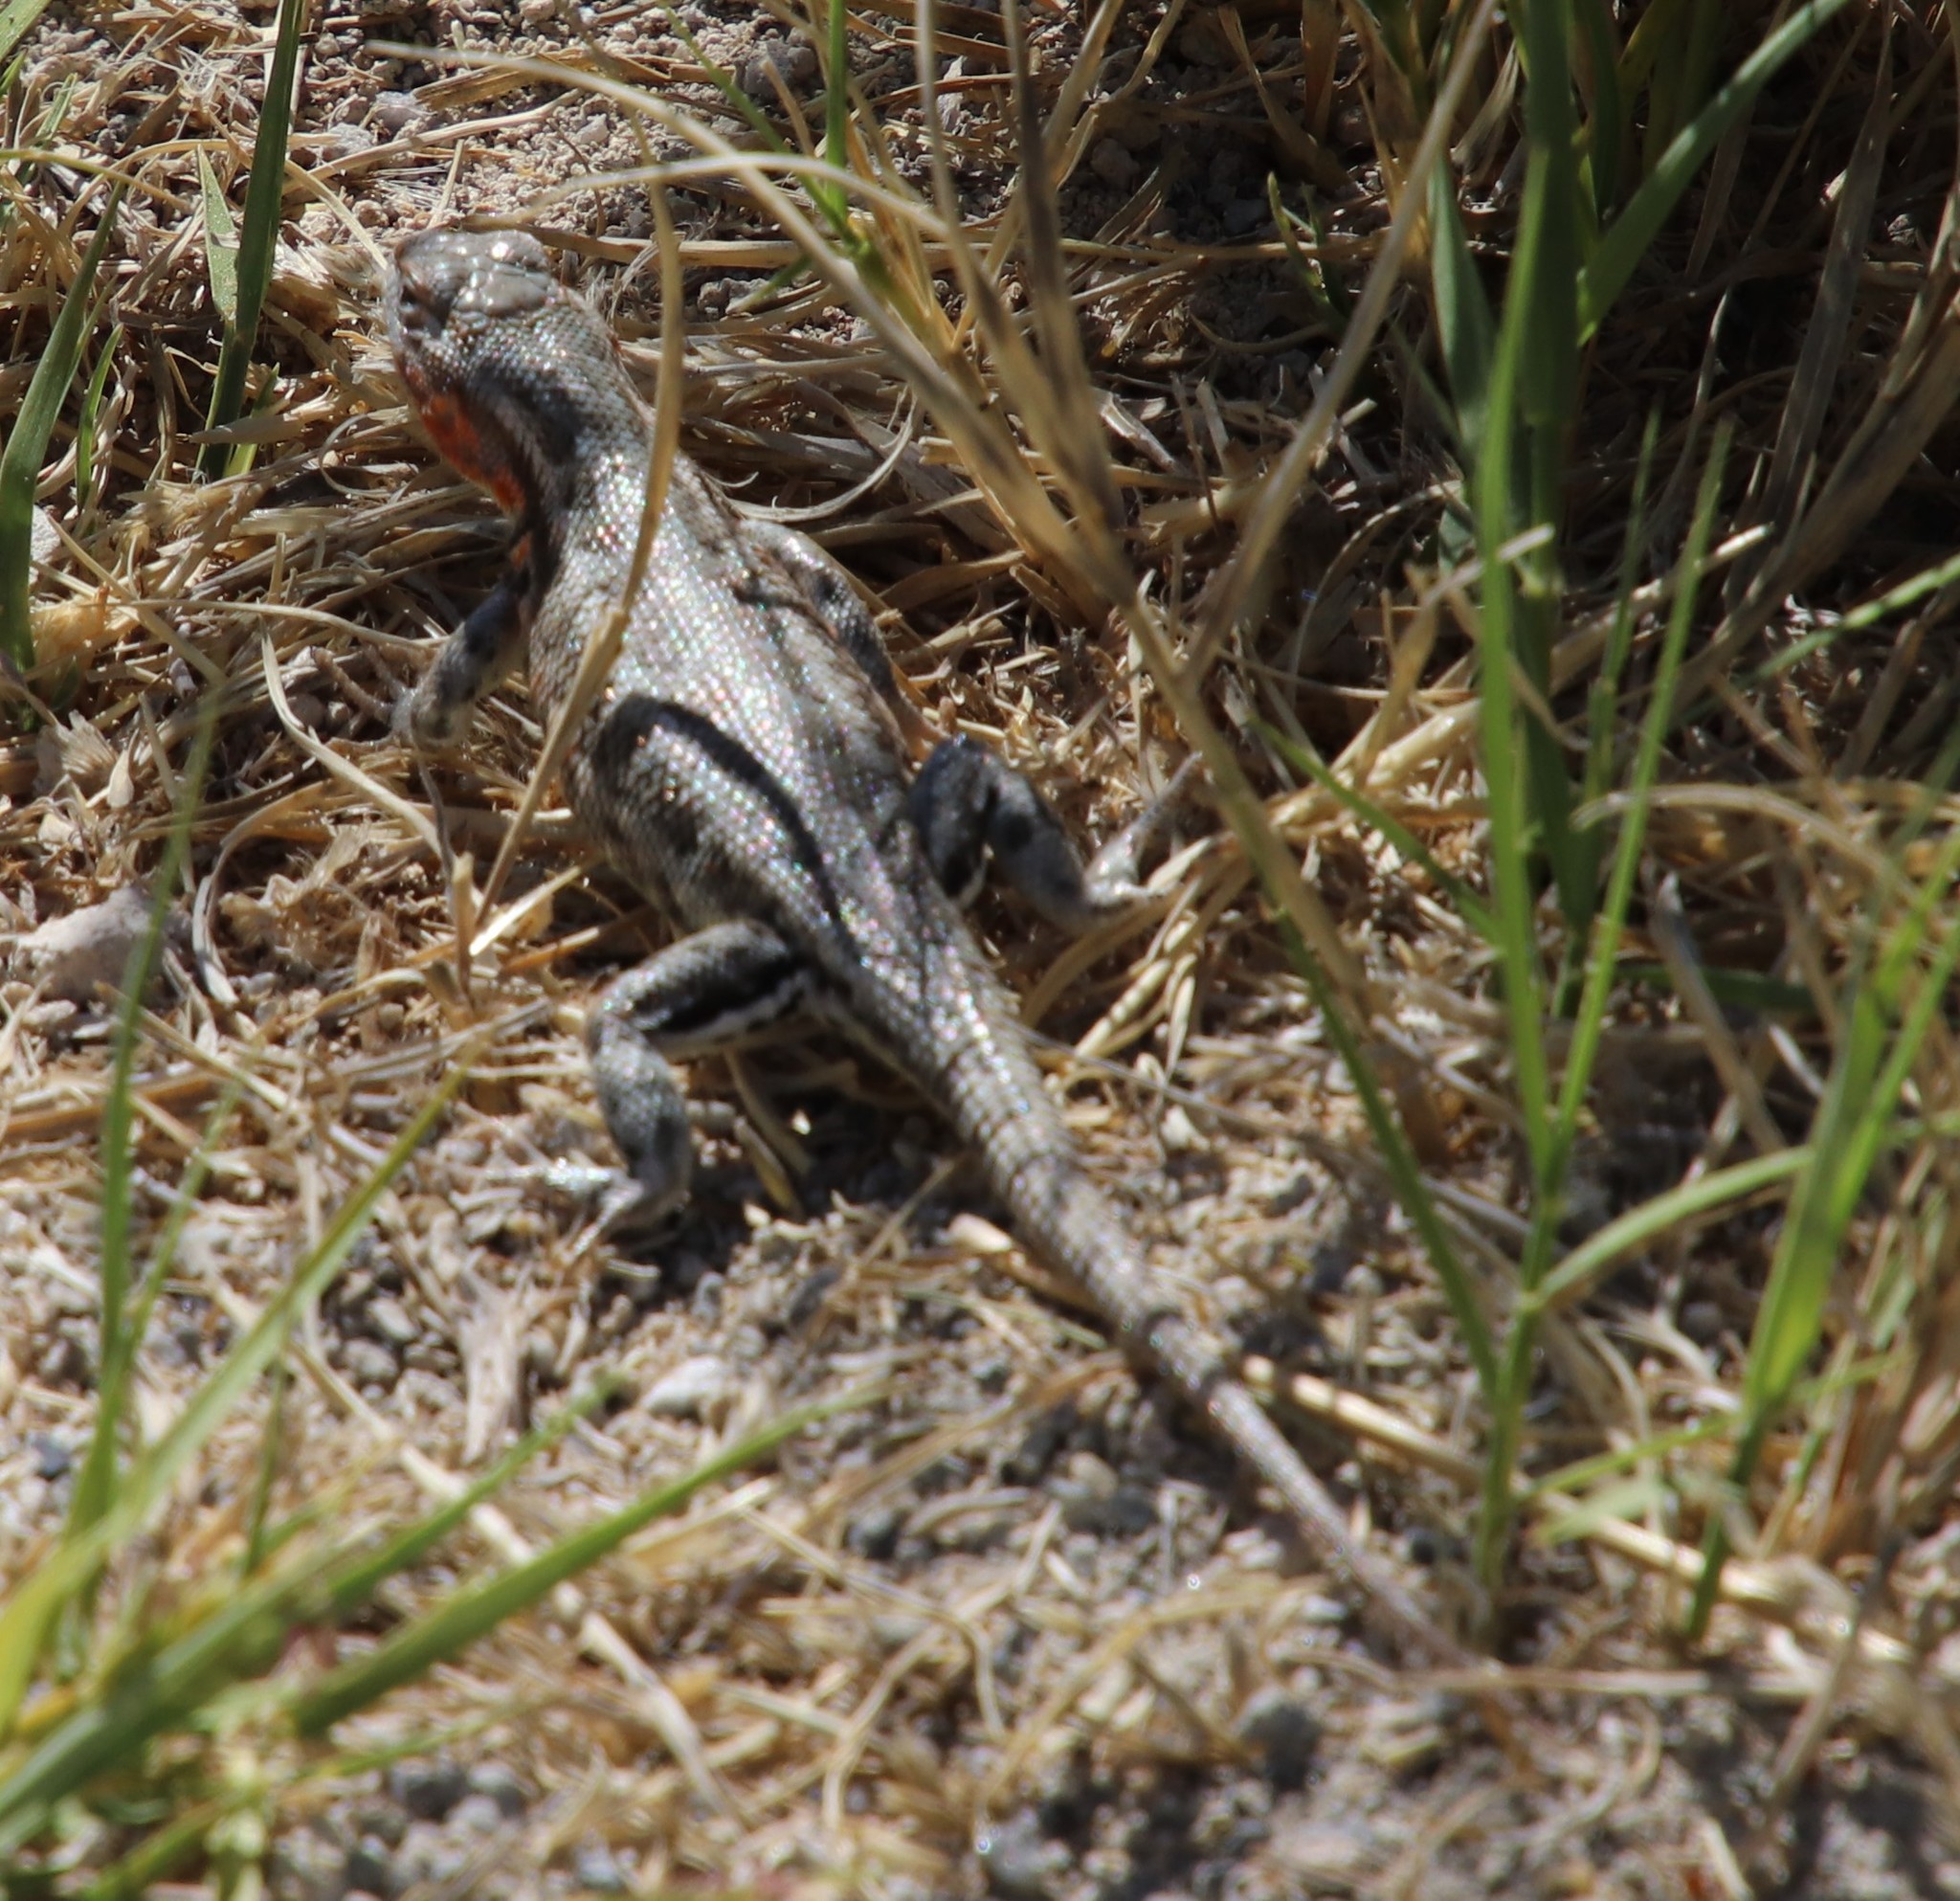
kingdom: Animalia
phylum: Chordata
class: Squamata
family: Phrynosomatidae
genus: Sceloporus
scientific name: Sceloporus graciosus
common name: Sagebrush lizard
